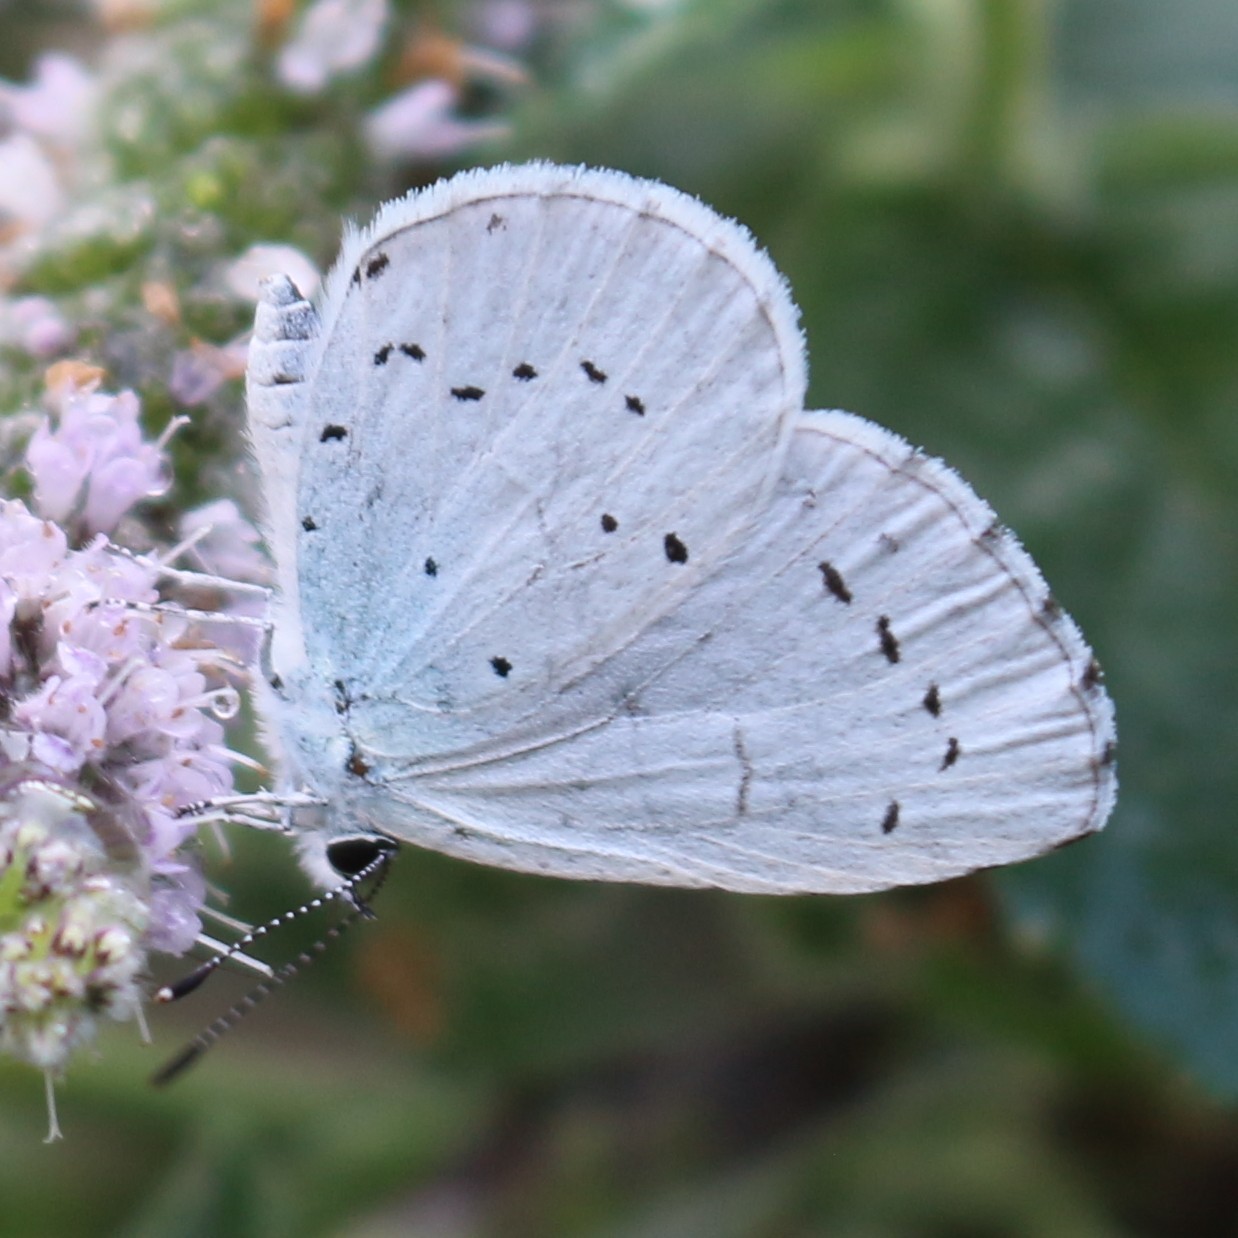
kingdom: Animalia
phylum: Arthropoda
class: Insecta
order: Lepidoptera
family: Lycaenidae
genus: Celastrina
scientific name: Celastrina argiolus
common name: Holly blue
